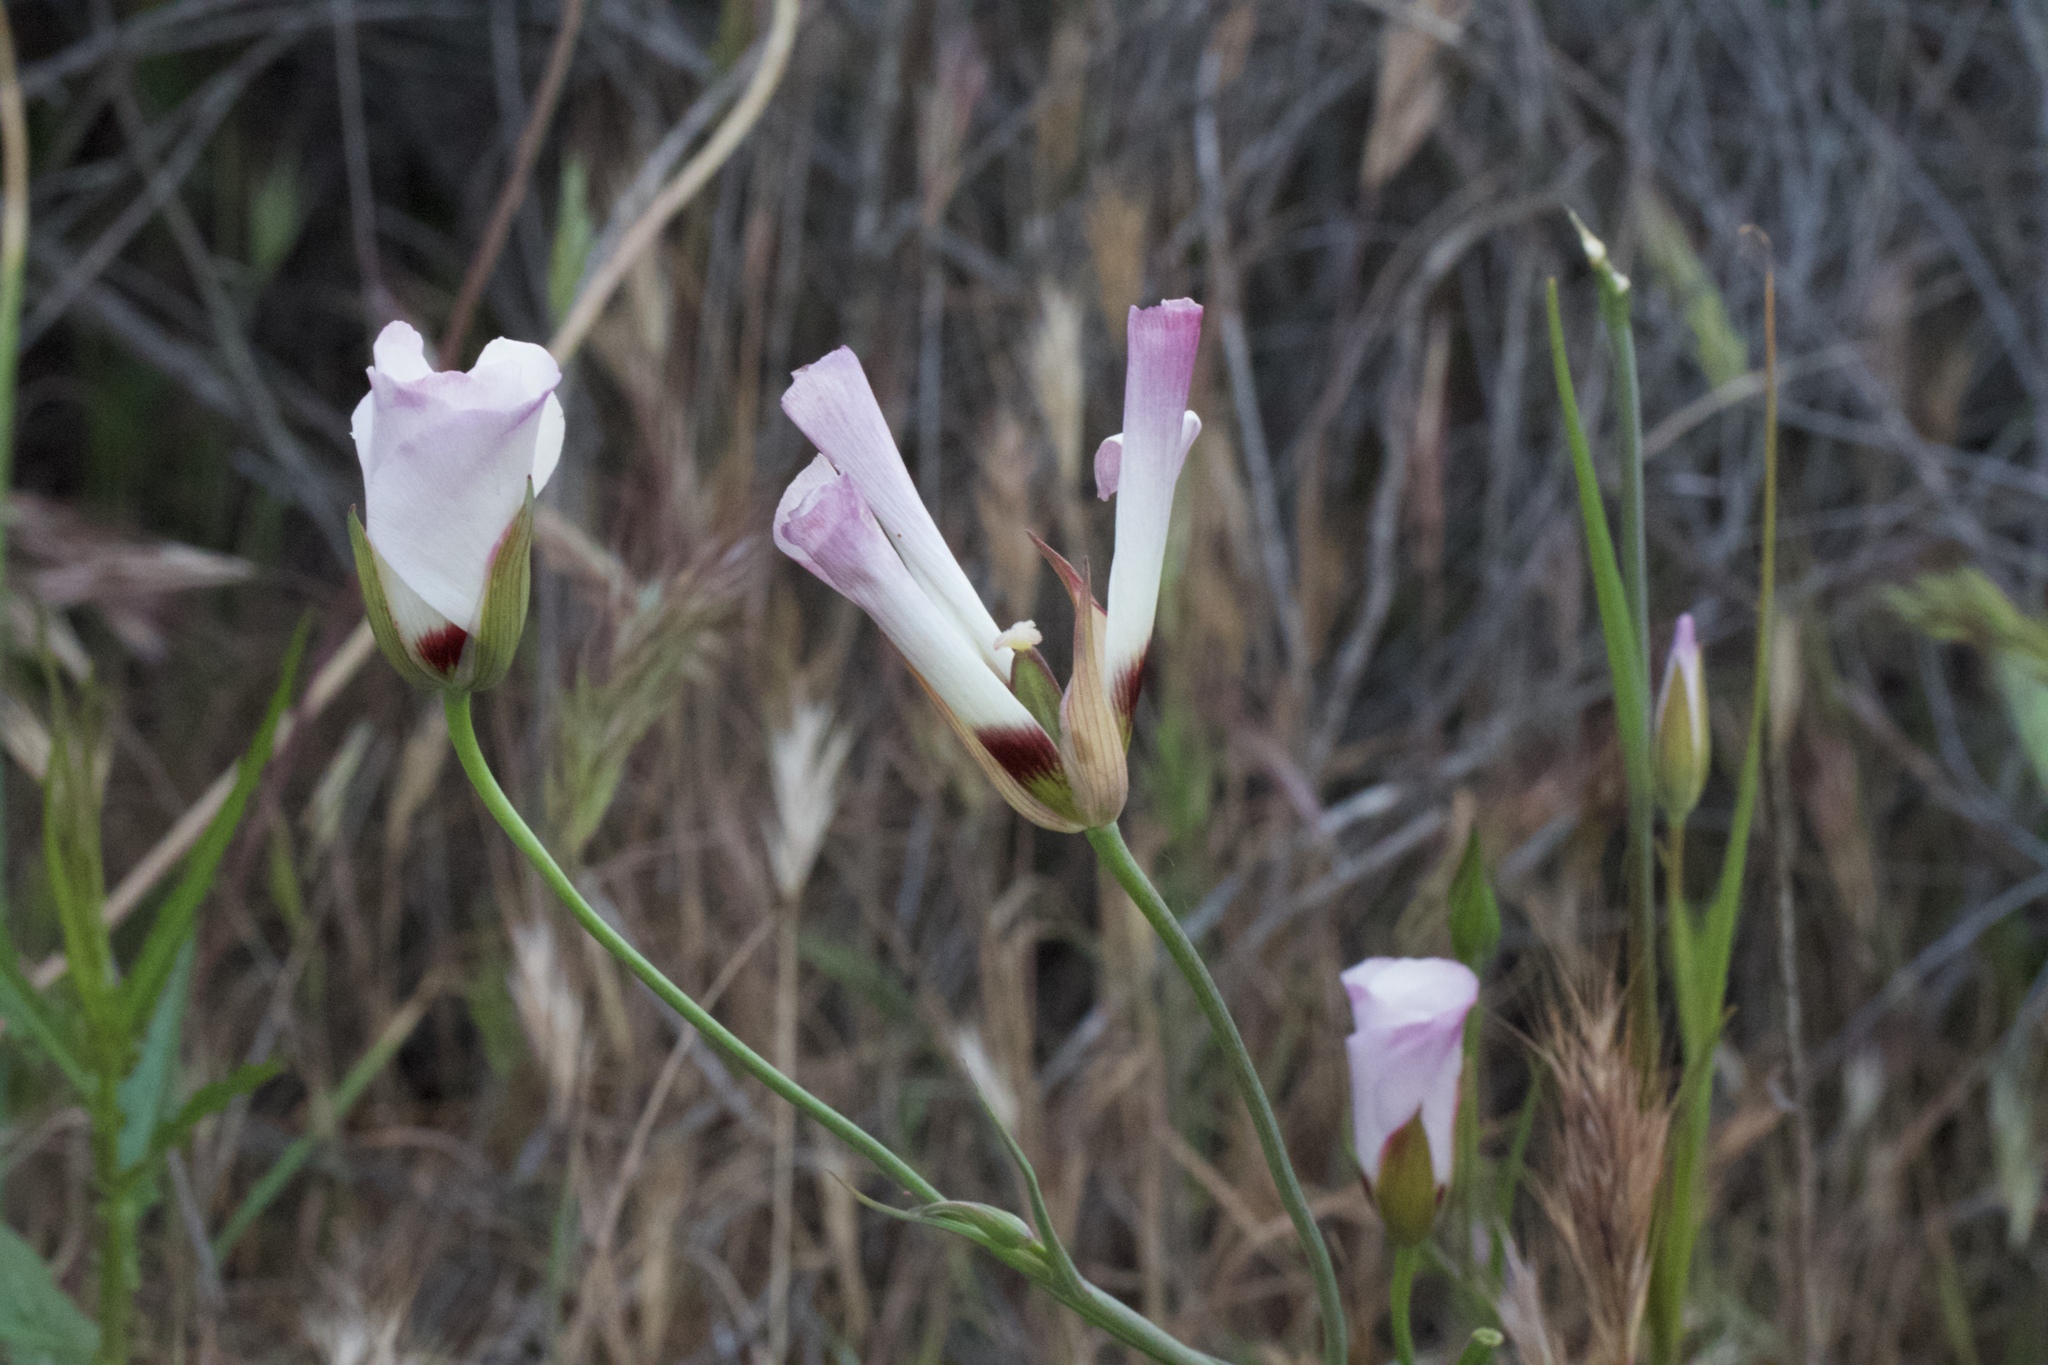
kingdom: Plantae
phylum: Tracheophyta
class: Liliopsida
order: Liliales
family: Liliaceae
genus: Calochortus
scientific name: Calochortus catalinae
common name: Catalina mariposa-lily
